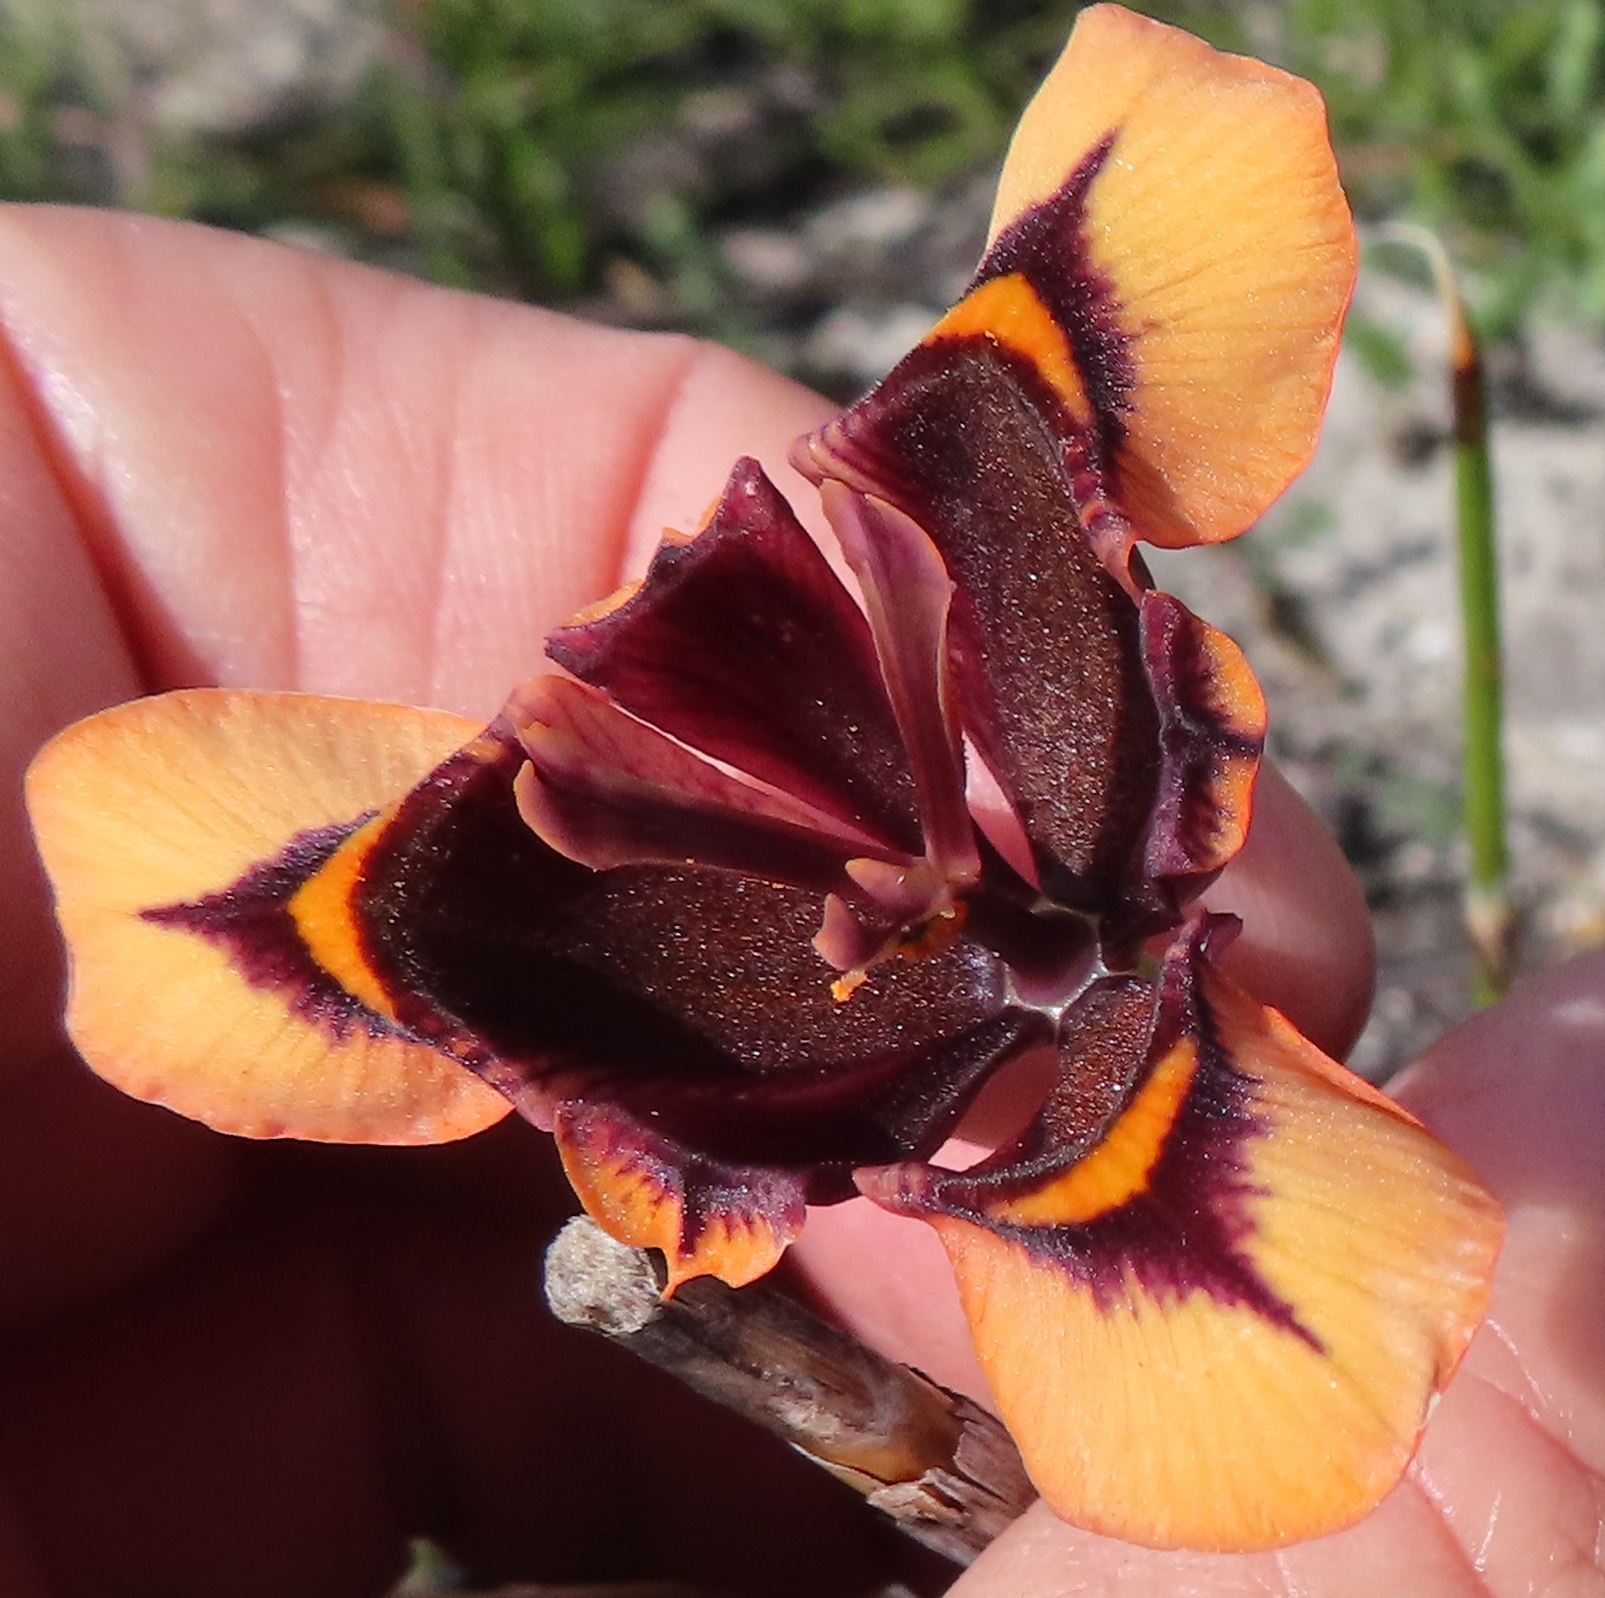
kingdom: Plantae
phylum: Tracheophyta
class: Liliopsida
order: Asparagales
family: Iridaceae
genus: Moraea
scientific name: Moraea lurida
